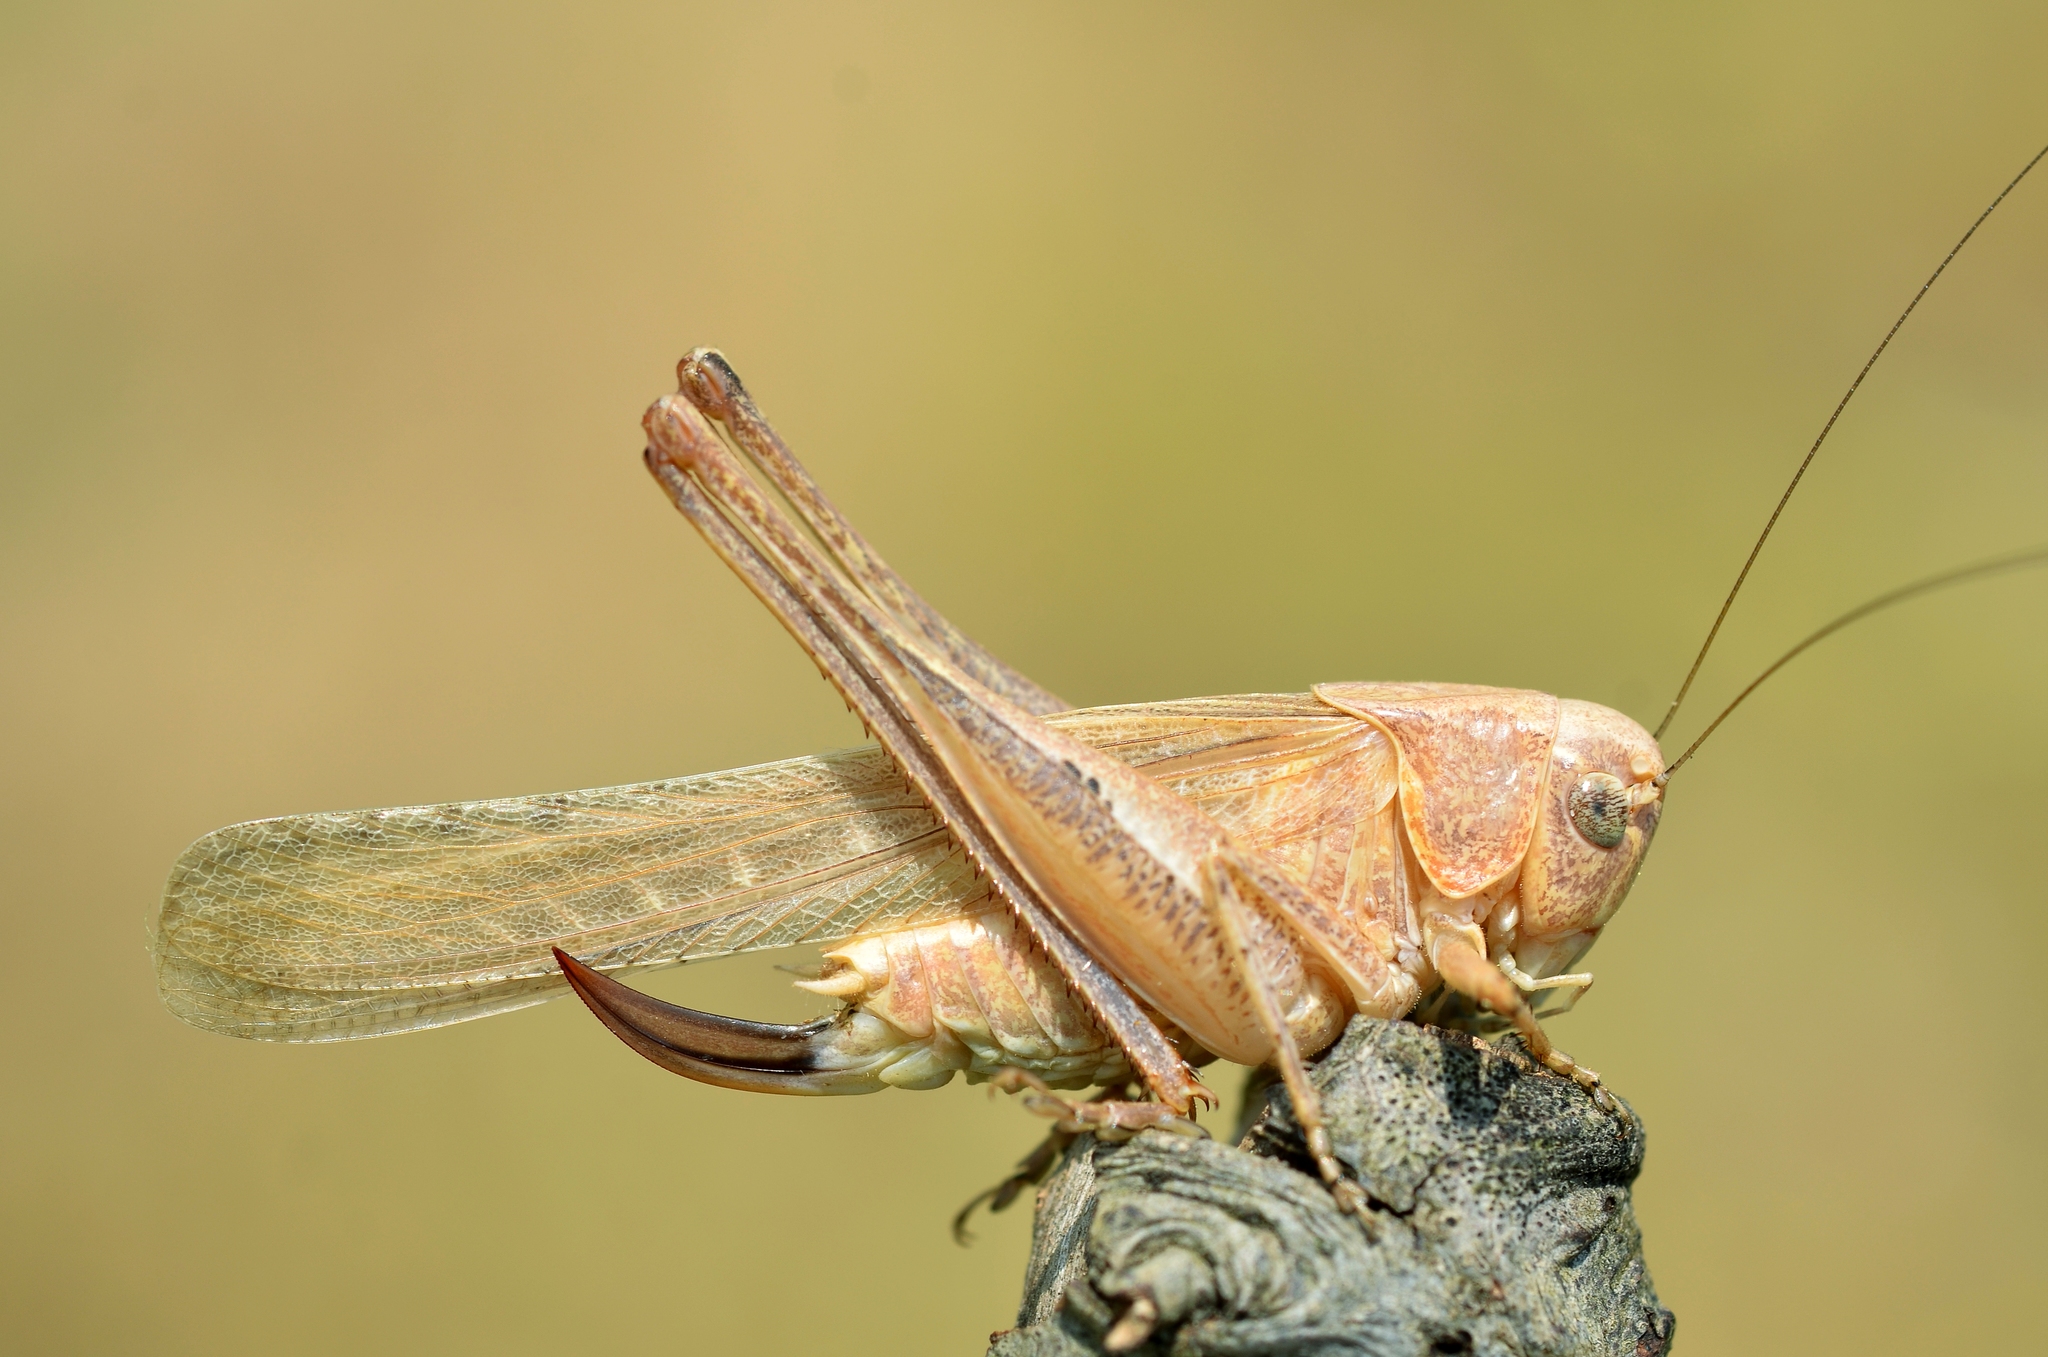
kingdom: Animalia
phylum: Arthropoda
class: Insecta
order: Orthoptera
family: Tettigoniidae
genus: Platycleis
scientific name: Platycleis intermedia
